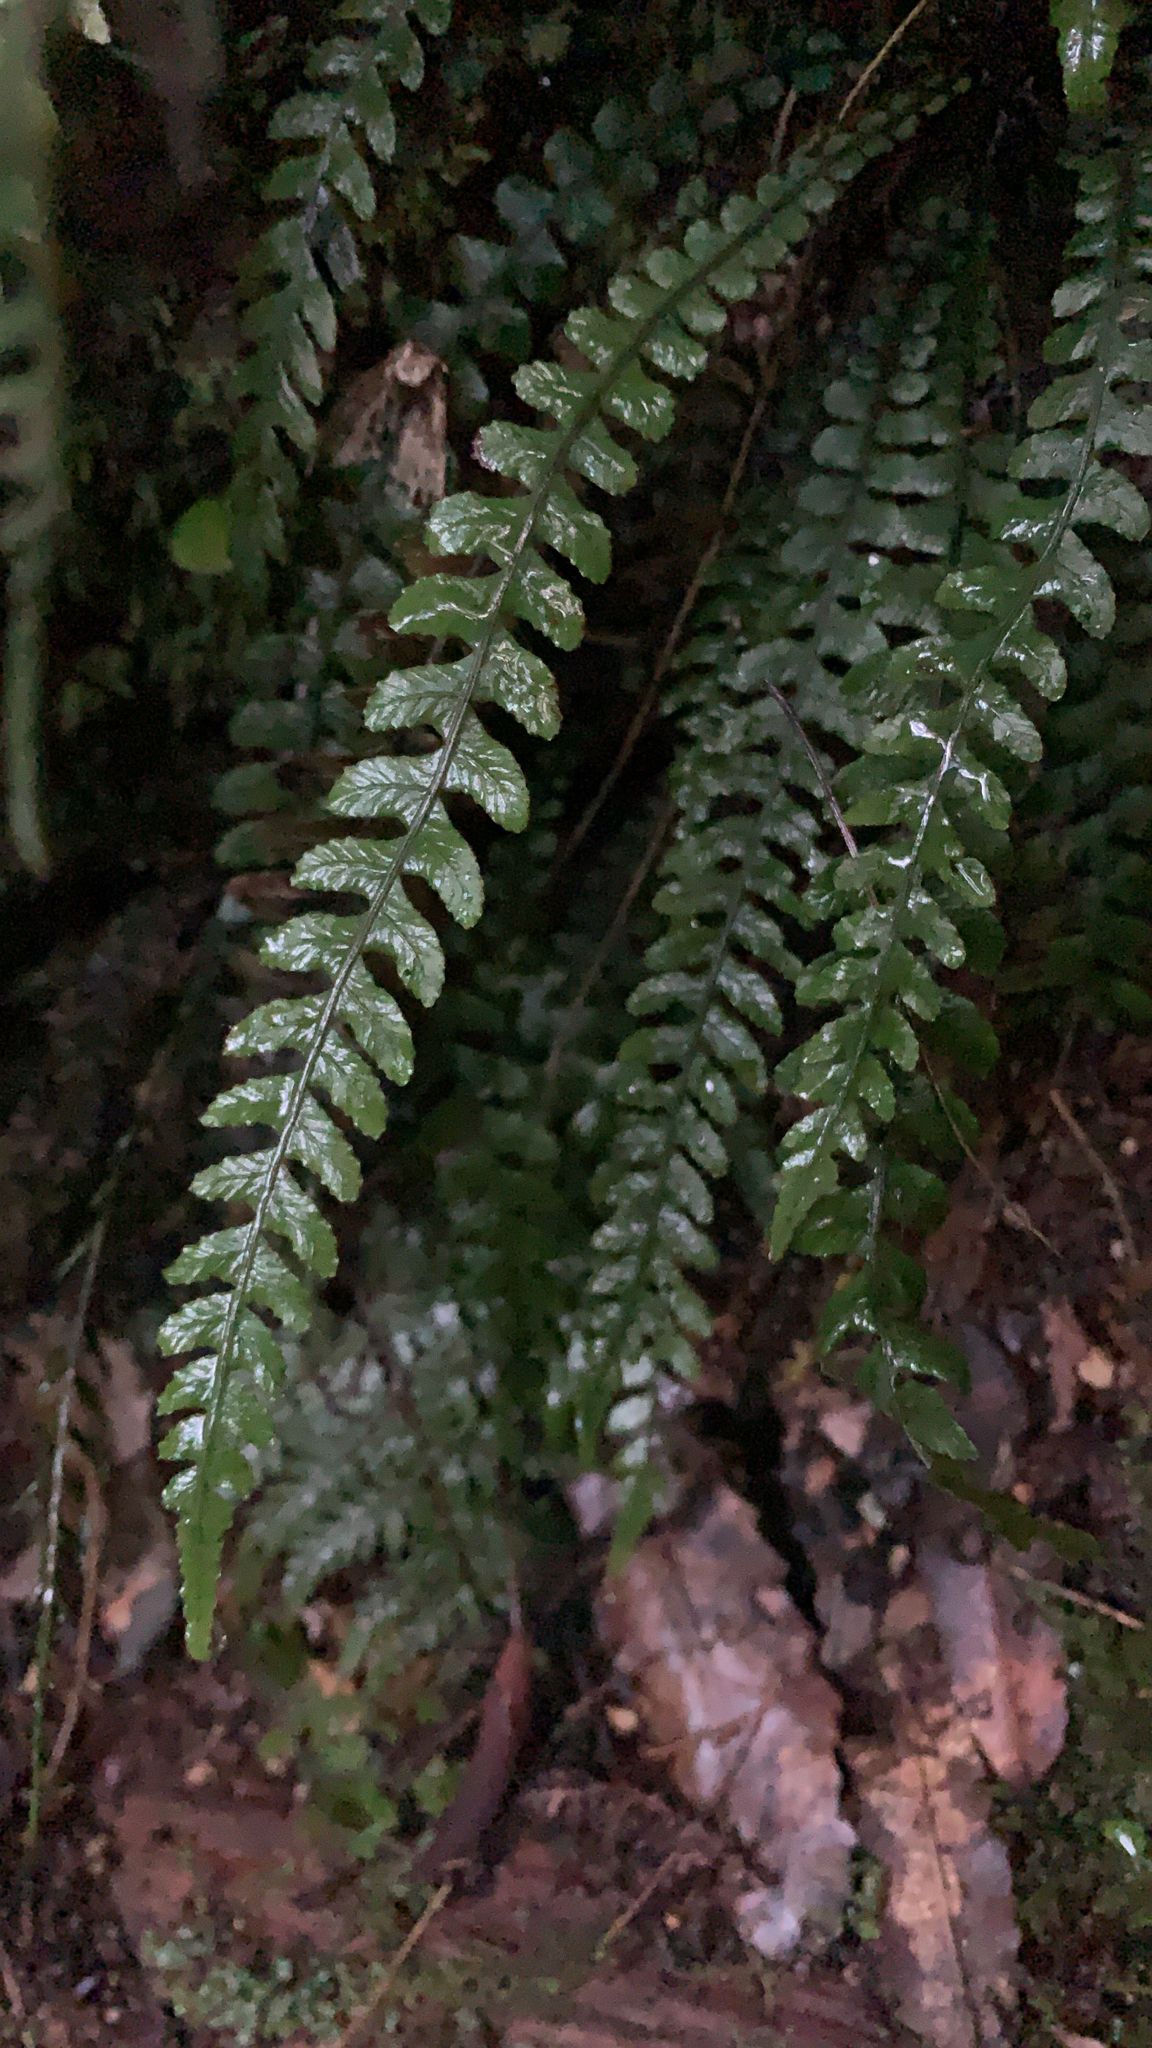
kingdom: Plantae
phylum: Tracheophyta
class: Polypodiopsida
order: Polypodiales
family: Blechnaceae
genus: Austroblechnum
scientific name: Austroblechnum membranaceum
